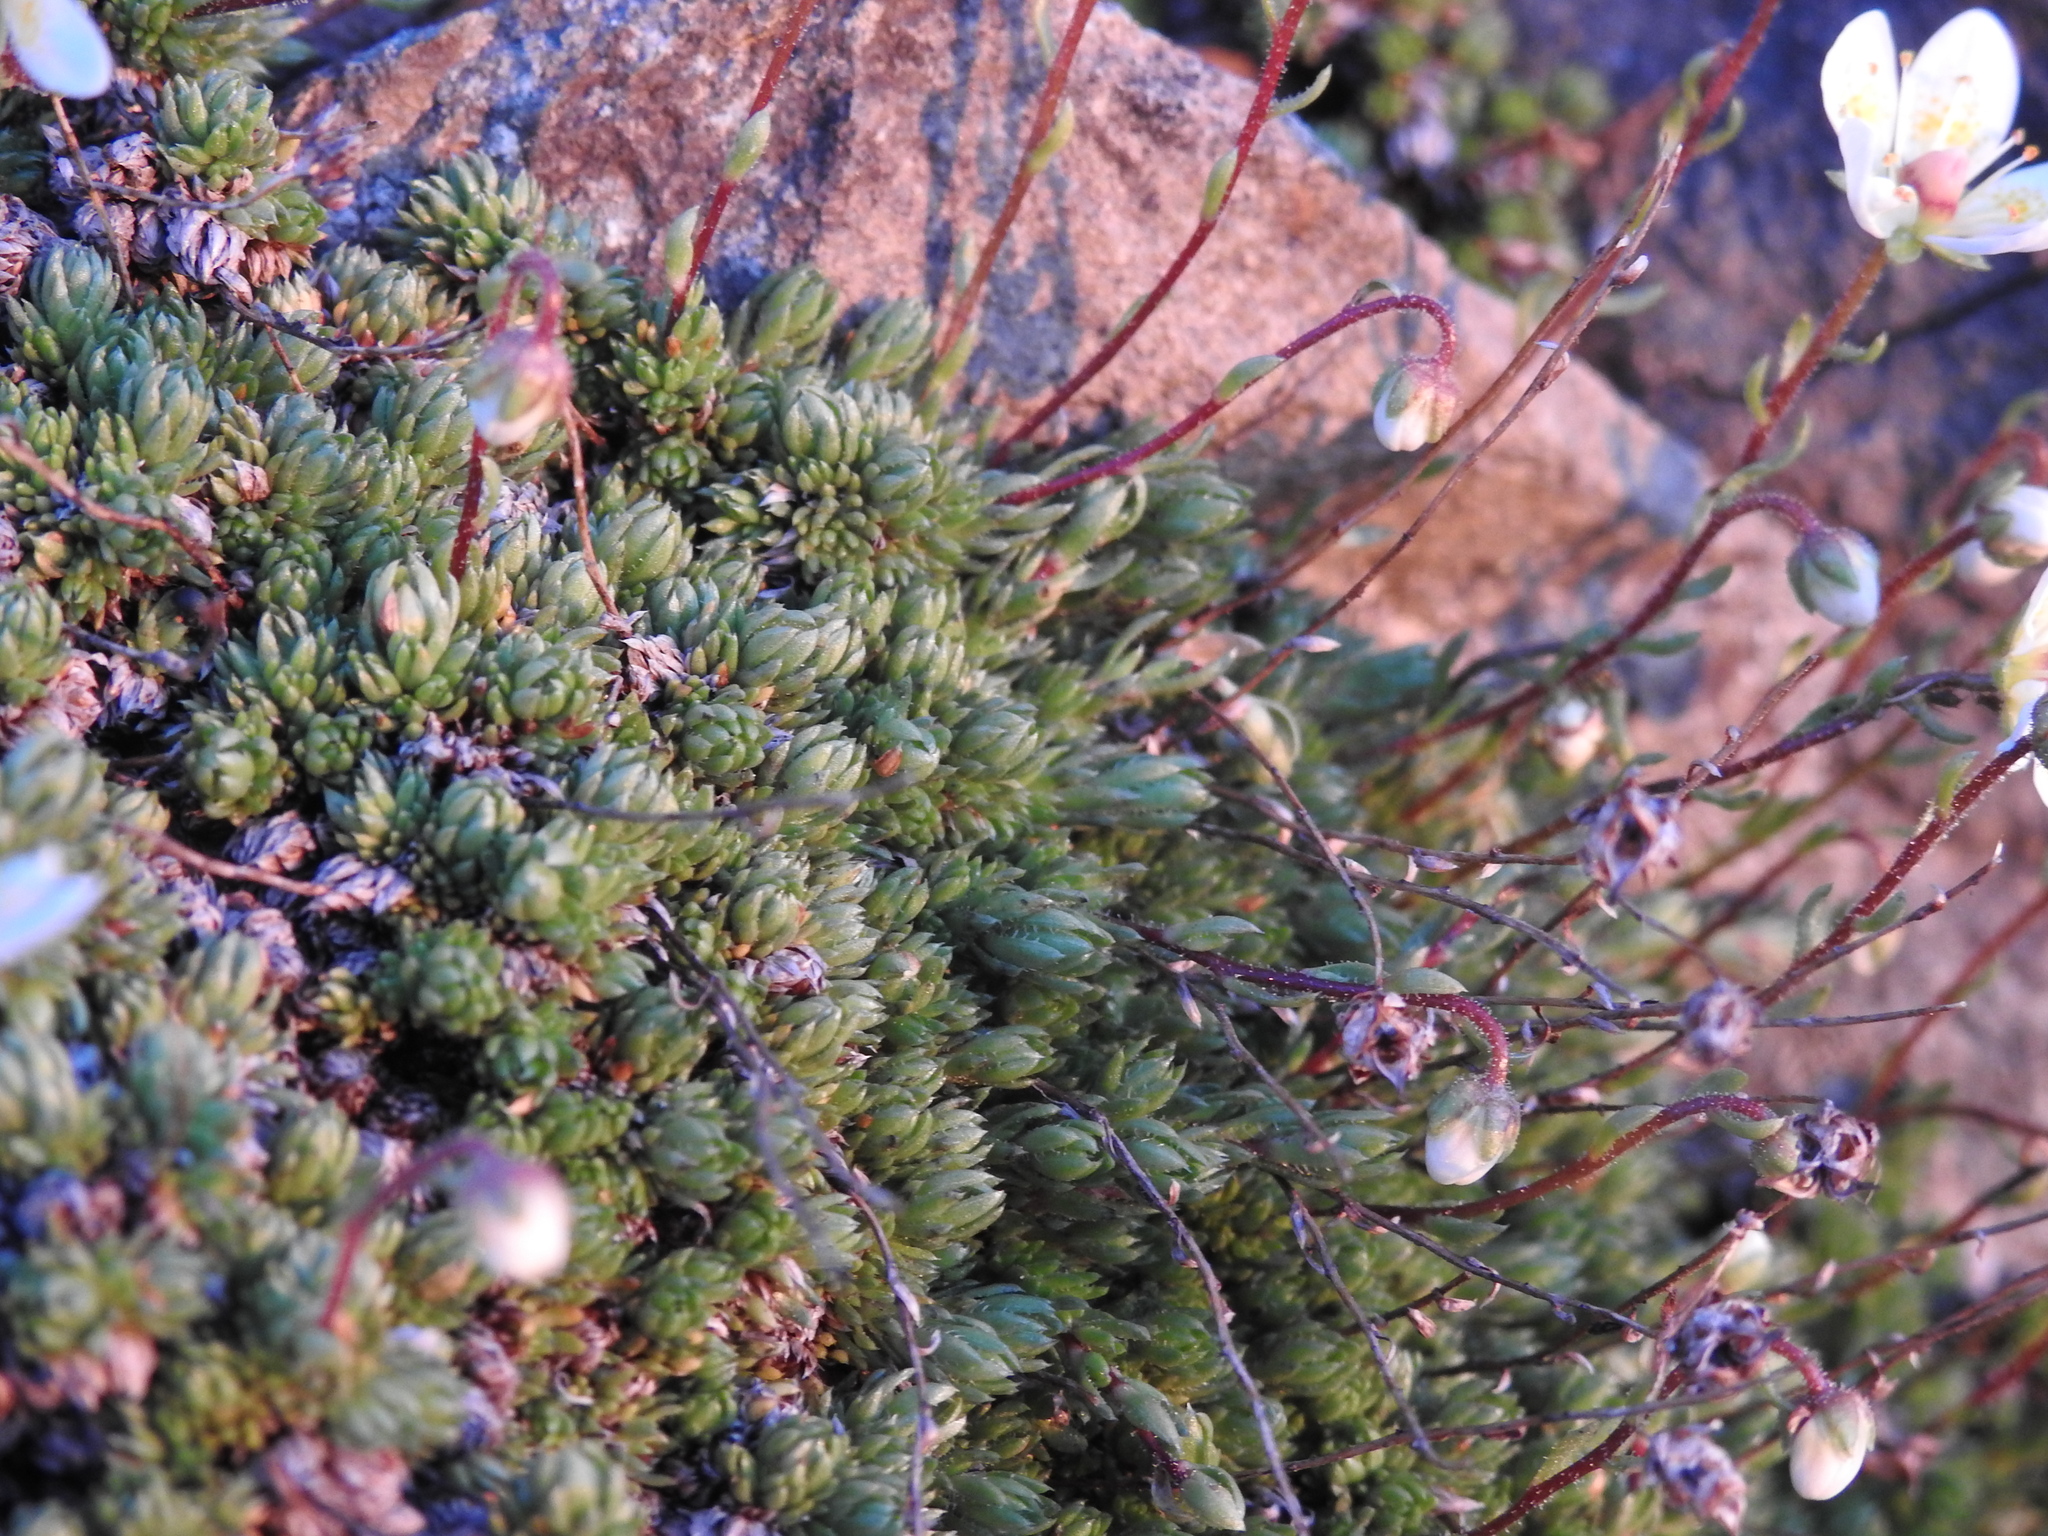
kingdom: Plantae
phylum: Tracheophyta
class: Magnoliopsida
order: Saxifragales
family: Saxifragaceae
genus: Saxifraga
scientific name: Saxifraga bryoides
